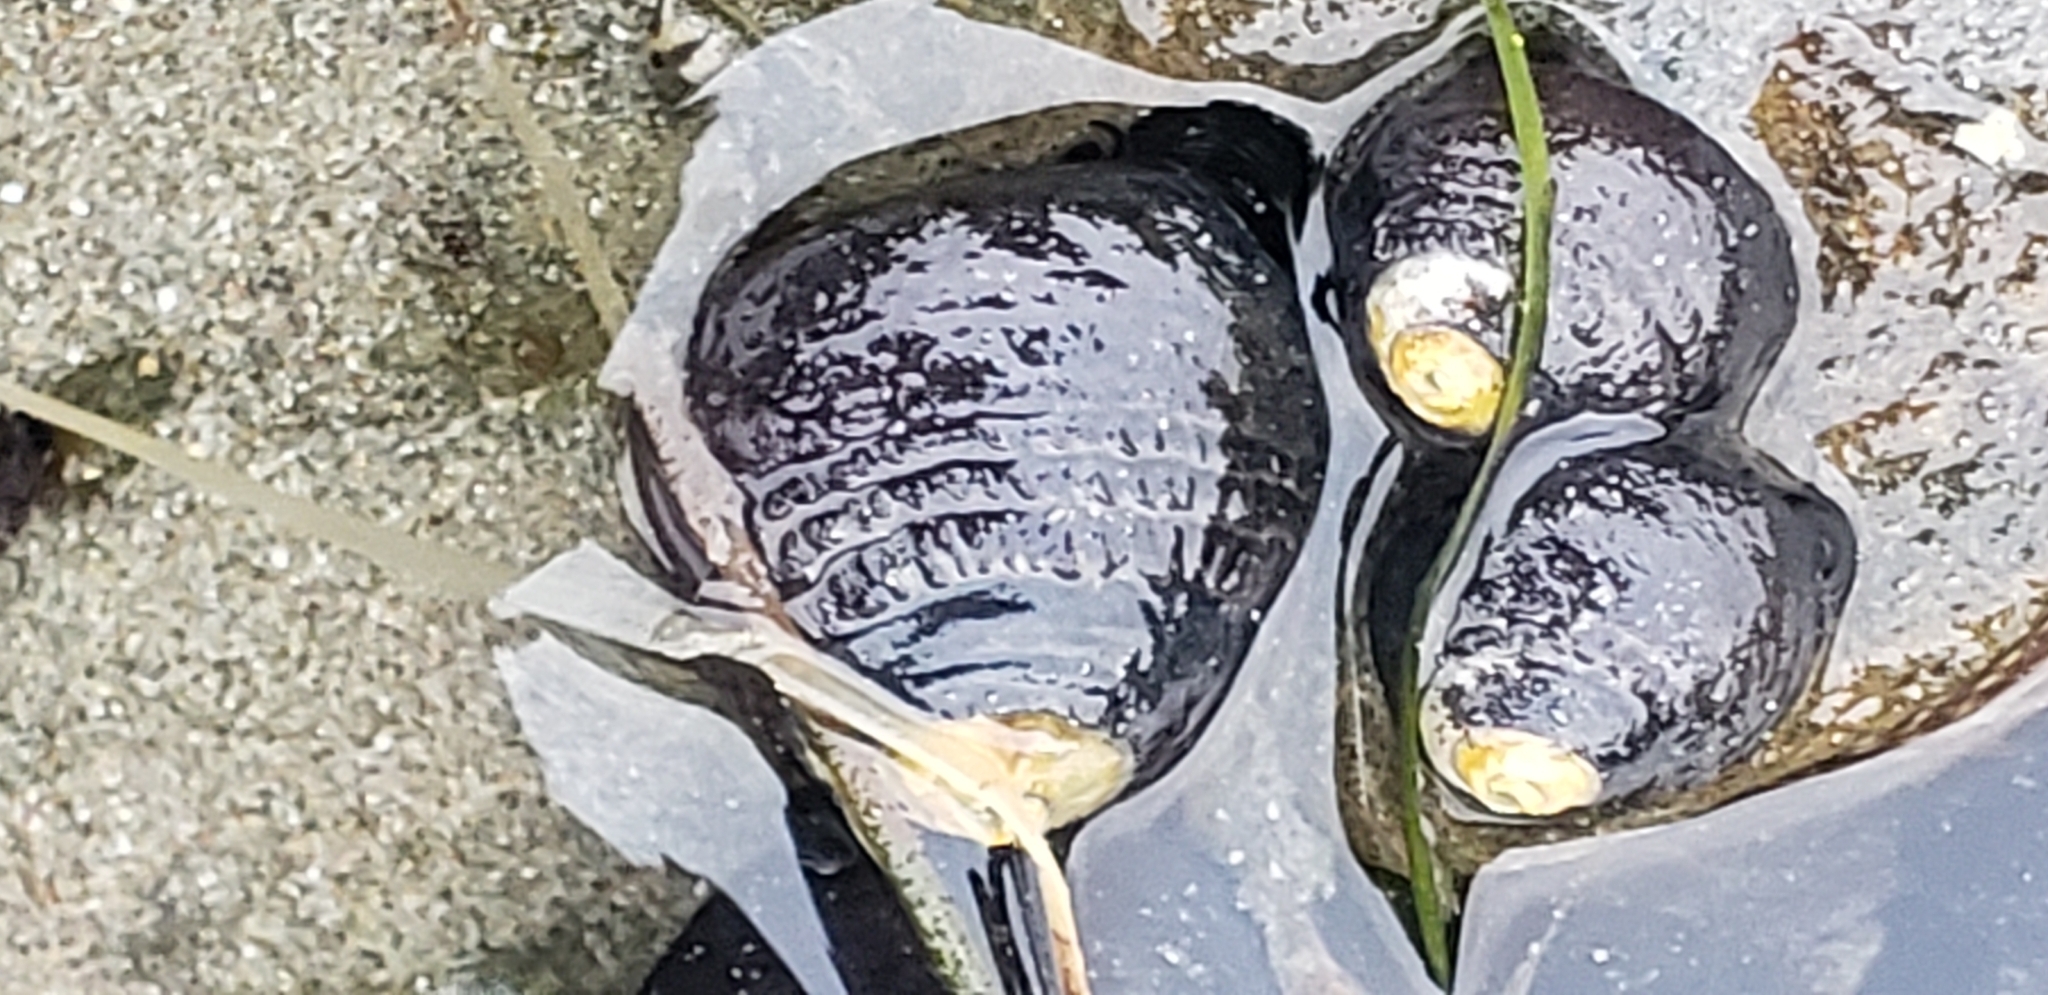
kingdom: Animalia
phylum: Mollusca
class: Gastropoda
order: Trochida
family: Tegulidae
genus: Tegula
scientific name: Tegula funebralis
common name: Black tegula
